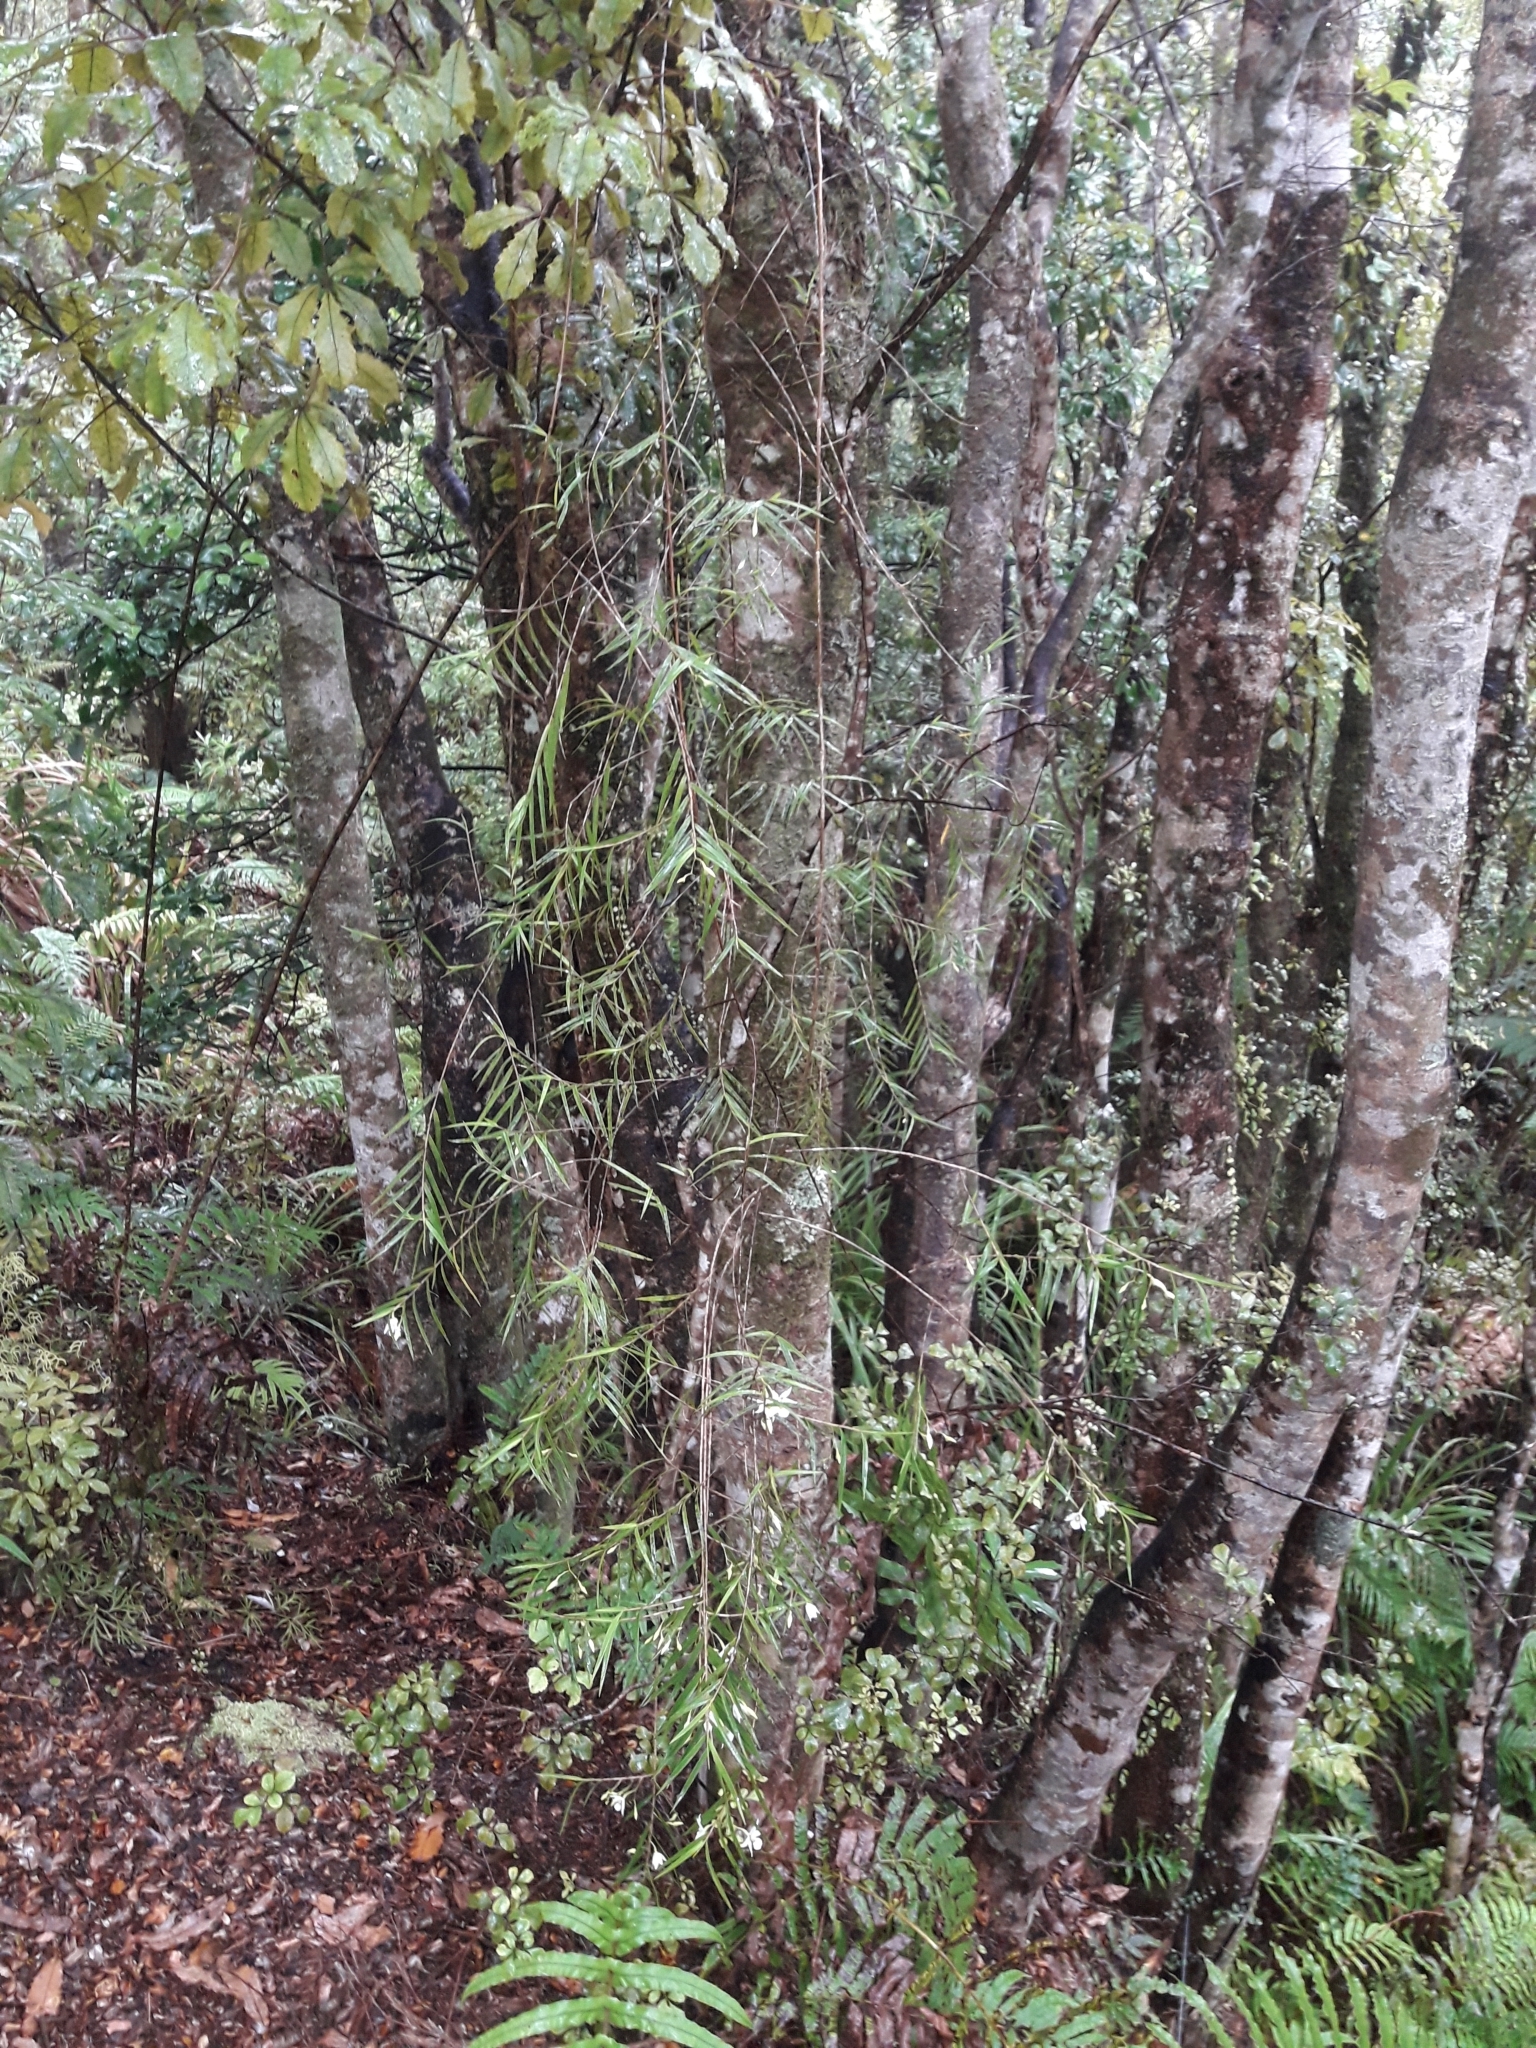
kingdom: Plantae
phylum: Tracheophyta
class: Liliopsida
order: Asparagales
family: Orchidaceae
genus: Dendrobium
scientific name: Dendrobium cunninghamii
